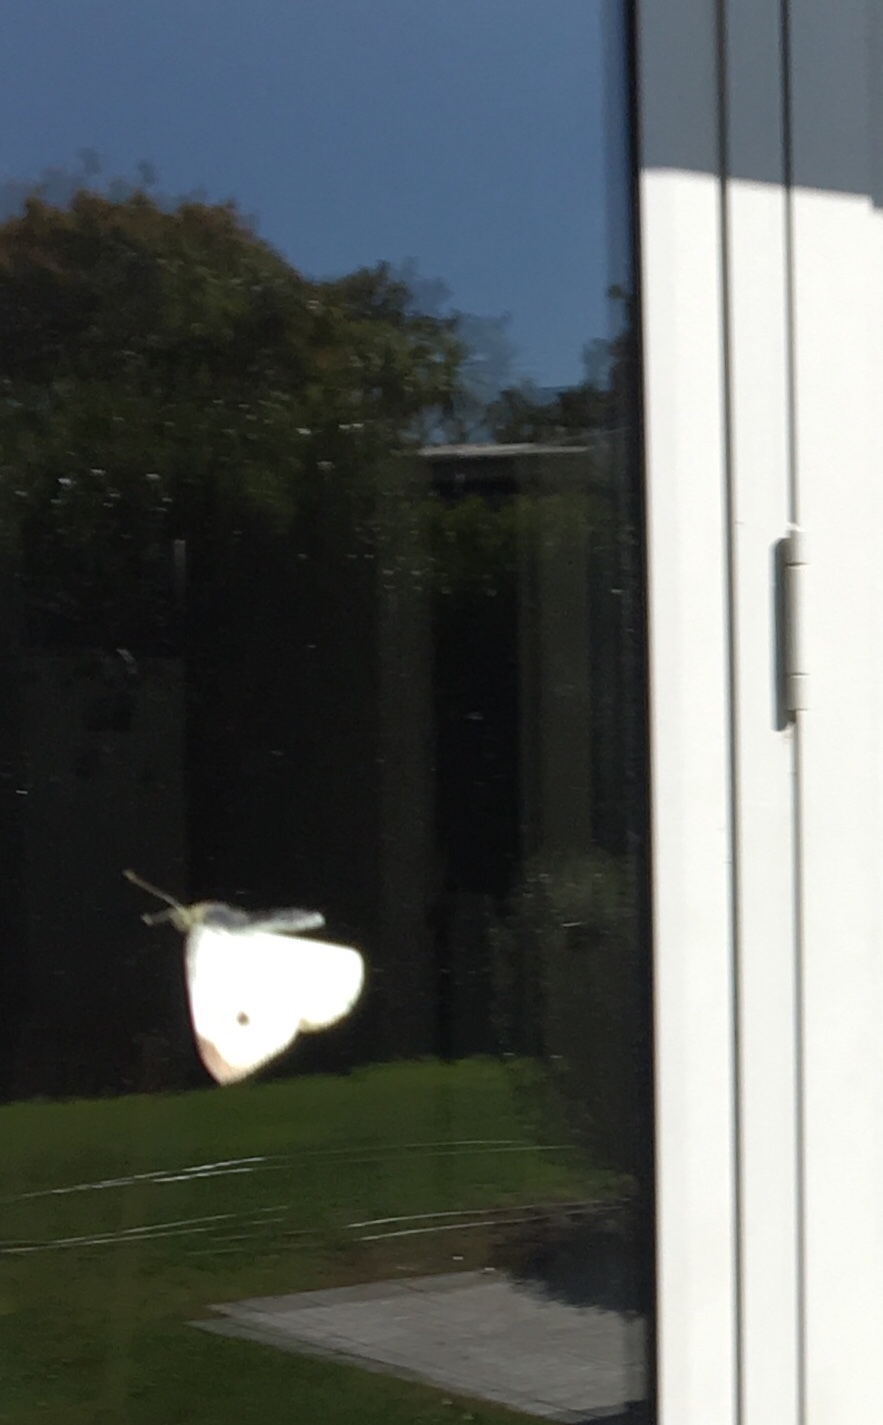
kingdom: Animalia
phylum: Arthropoda
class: Insecta
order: Lepidoptera
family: Pieridae
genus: Pieris
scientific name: Pieris rapae
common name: Small white
